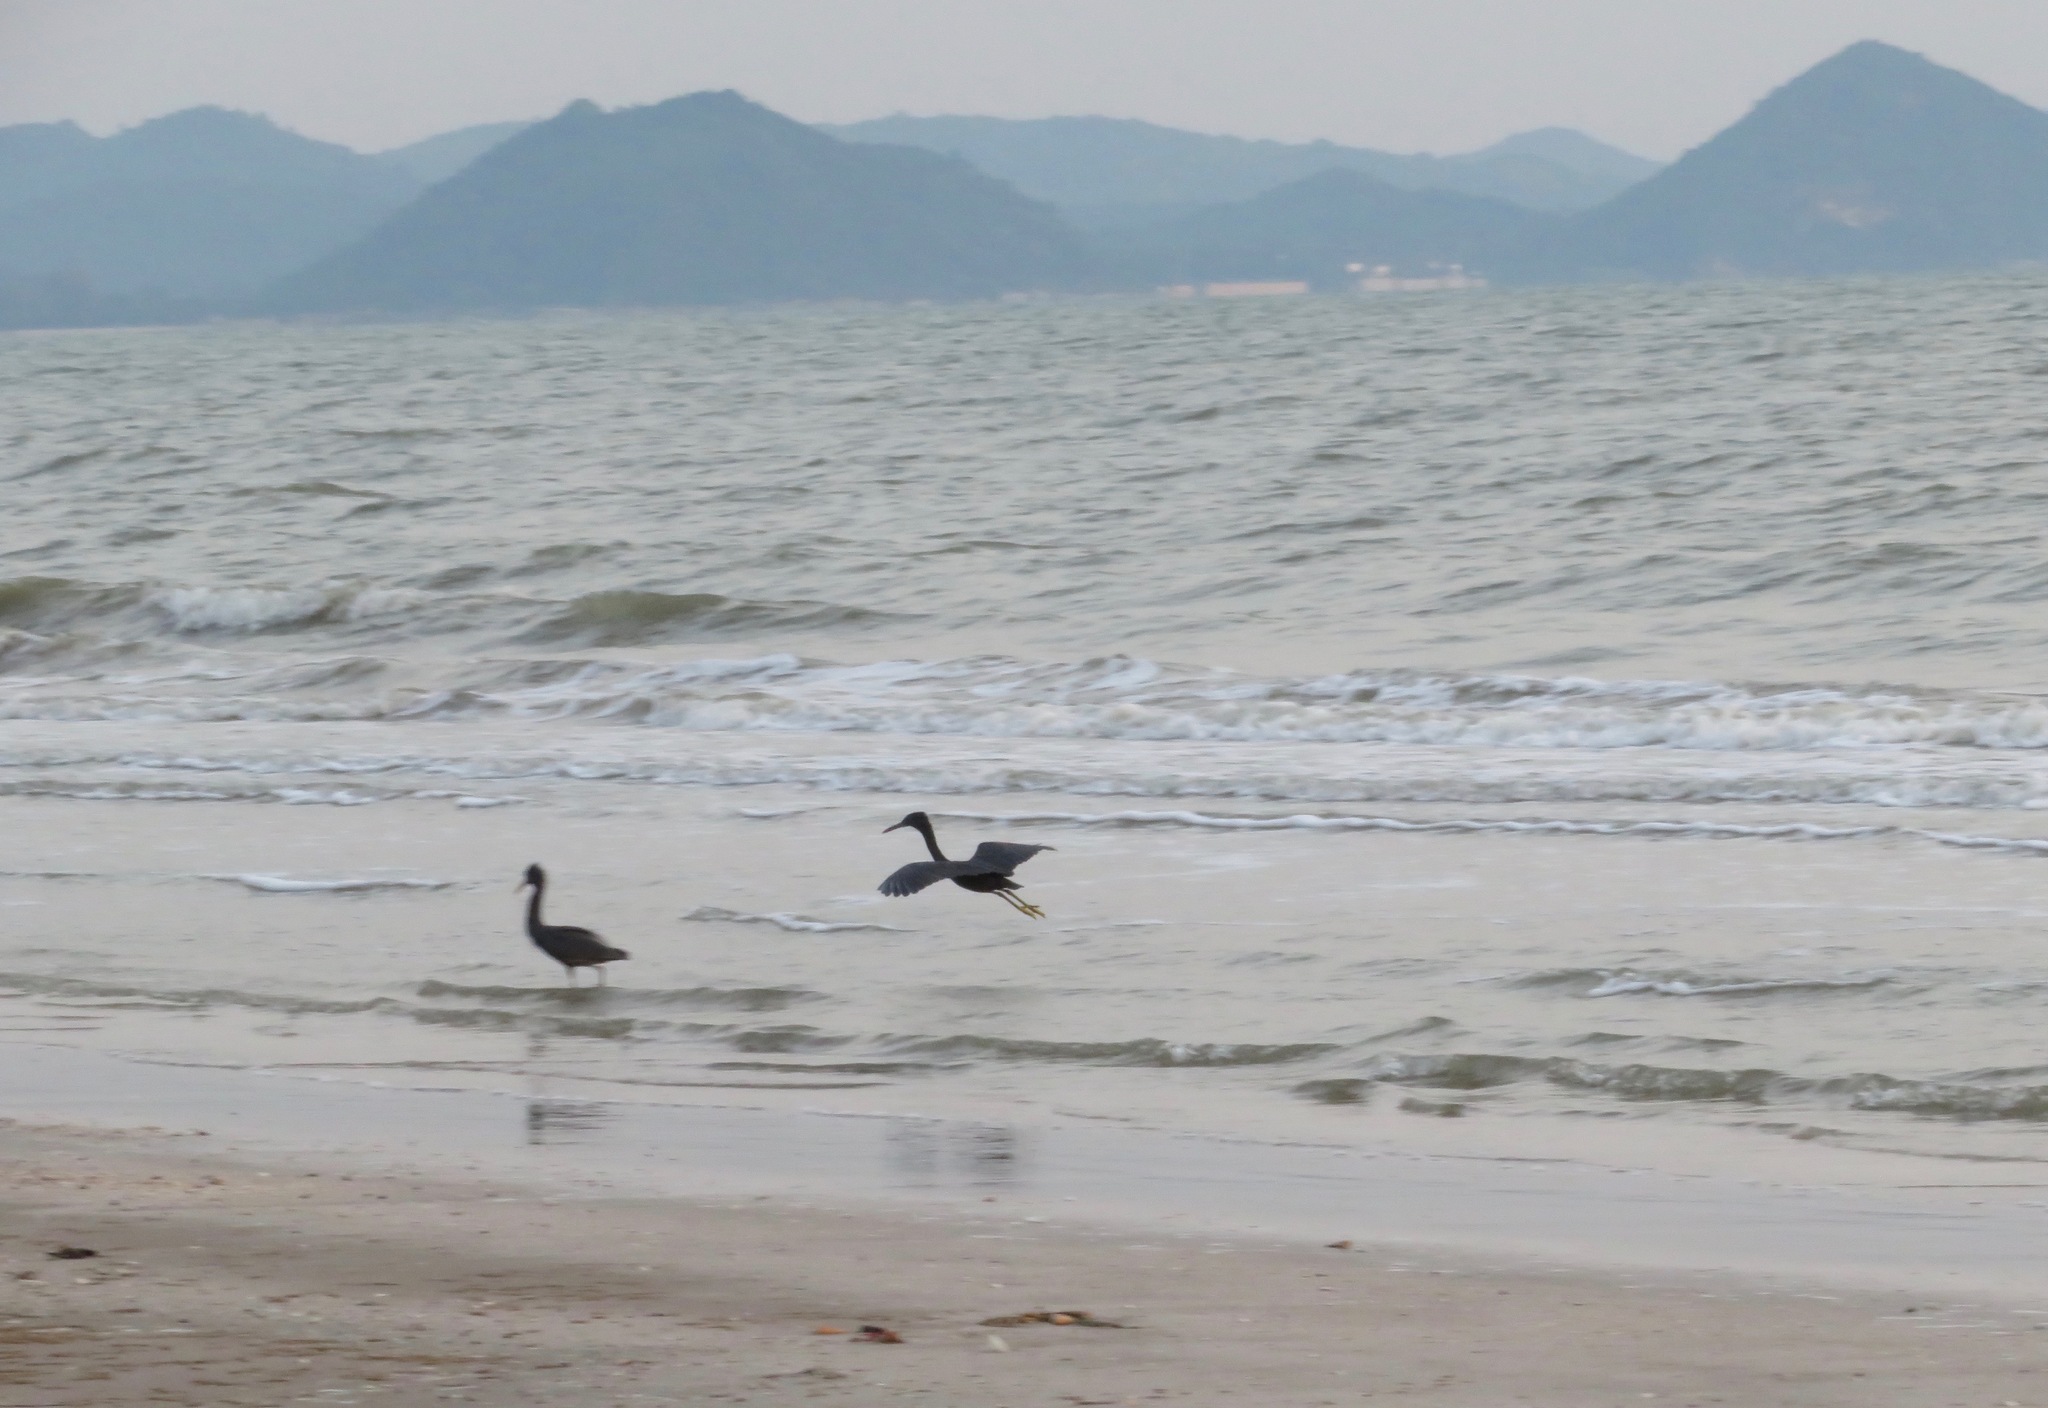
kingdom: Animalia
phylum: Chordata
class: Aves
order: Pelecaniformes
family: Ardeidae
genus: Egretta
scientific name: Egretta sacra
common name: Pacific reef heron
